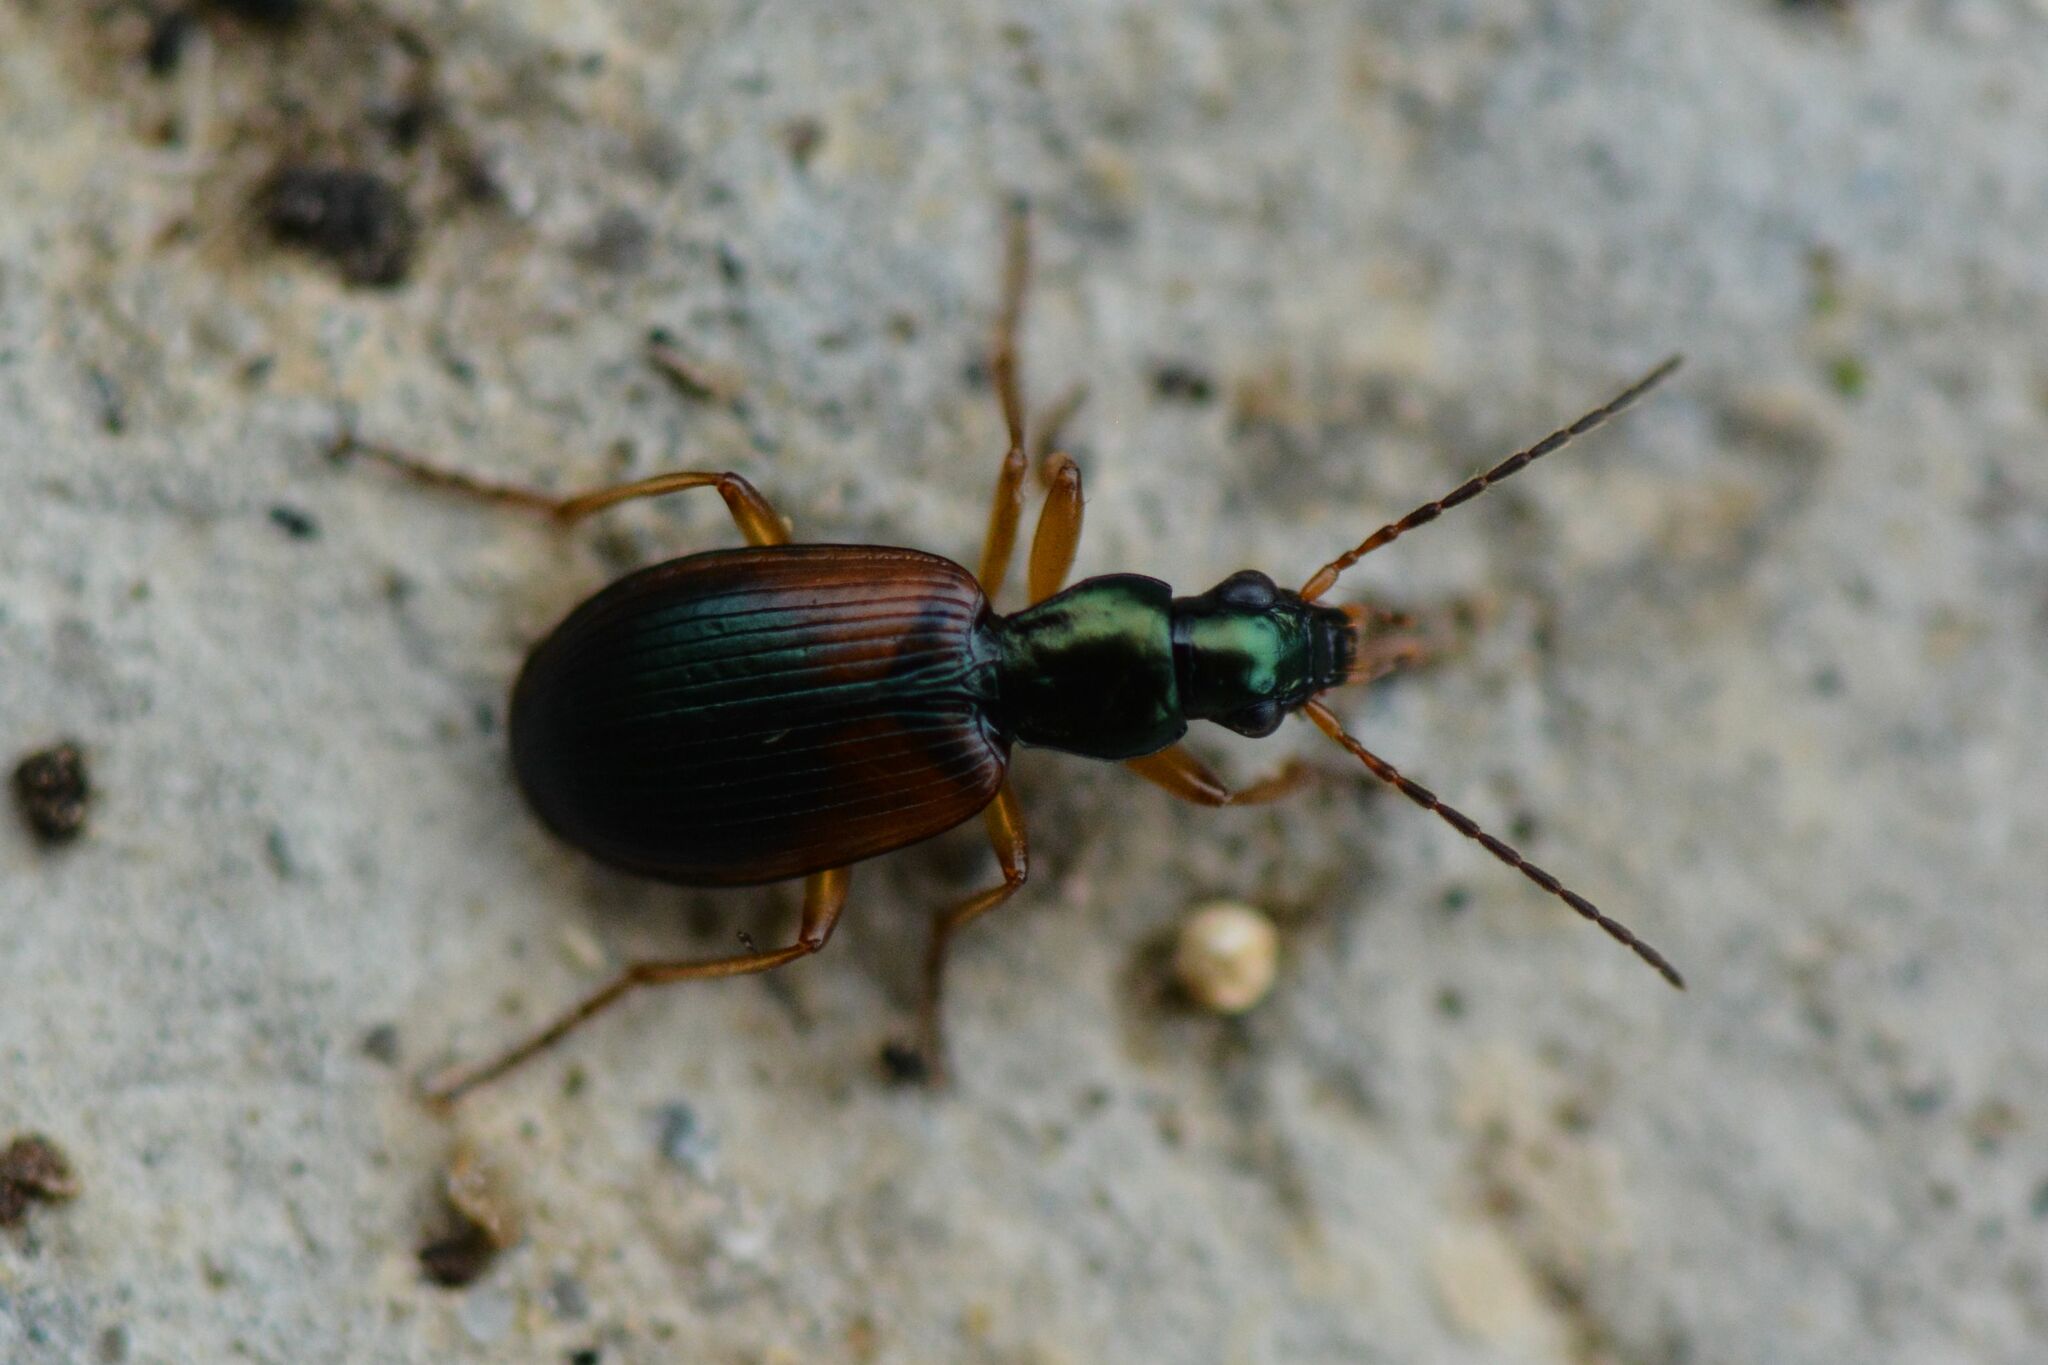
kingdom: Animalia
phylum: Arthropoda
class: Insecta
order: Coleoptera
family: Carabidae
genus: Anchomenus
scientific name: Anchomenus dorsalis
